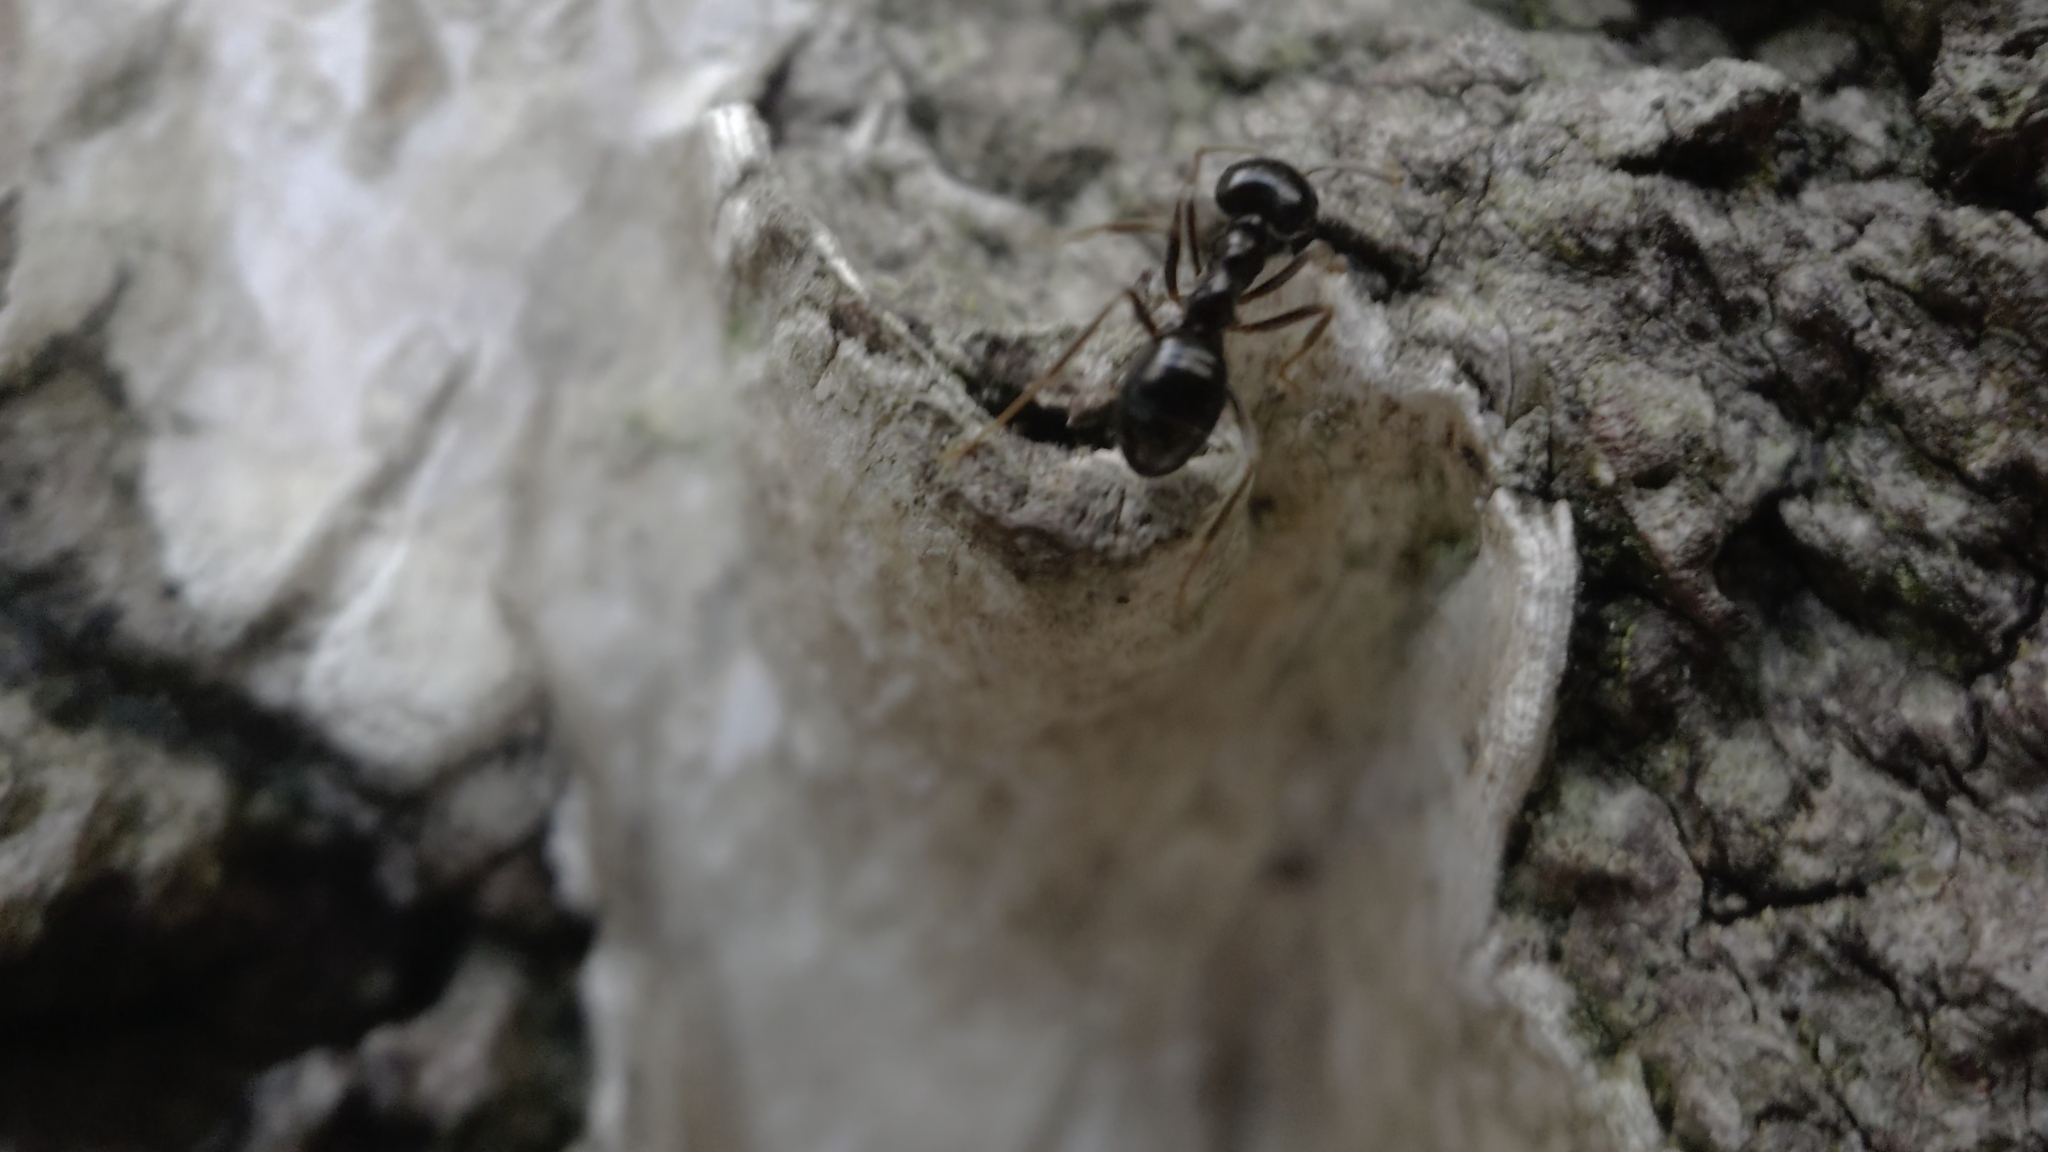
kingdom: Animalia
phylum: Arthropoda
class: Insecta
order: Hymenoptera
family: Formicidae
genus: Lasius
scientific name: Lasius fuliginosus
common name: Jet ant
